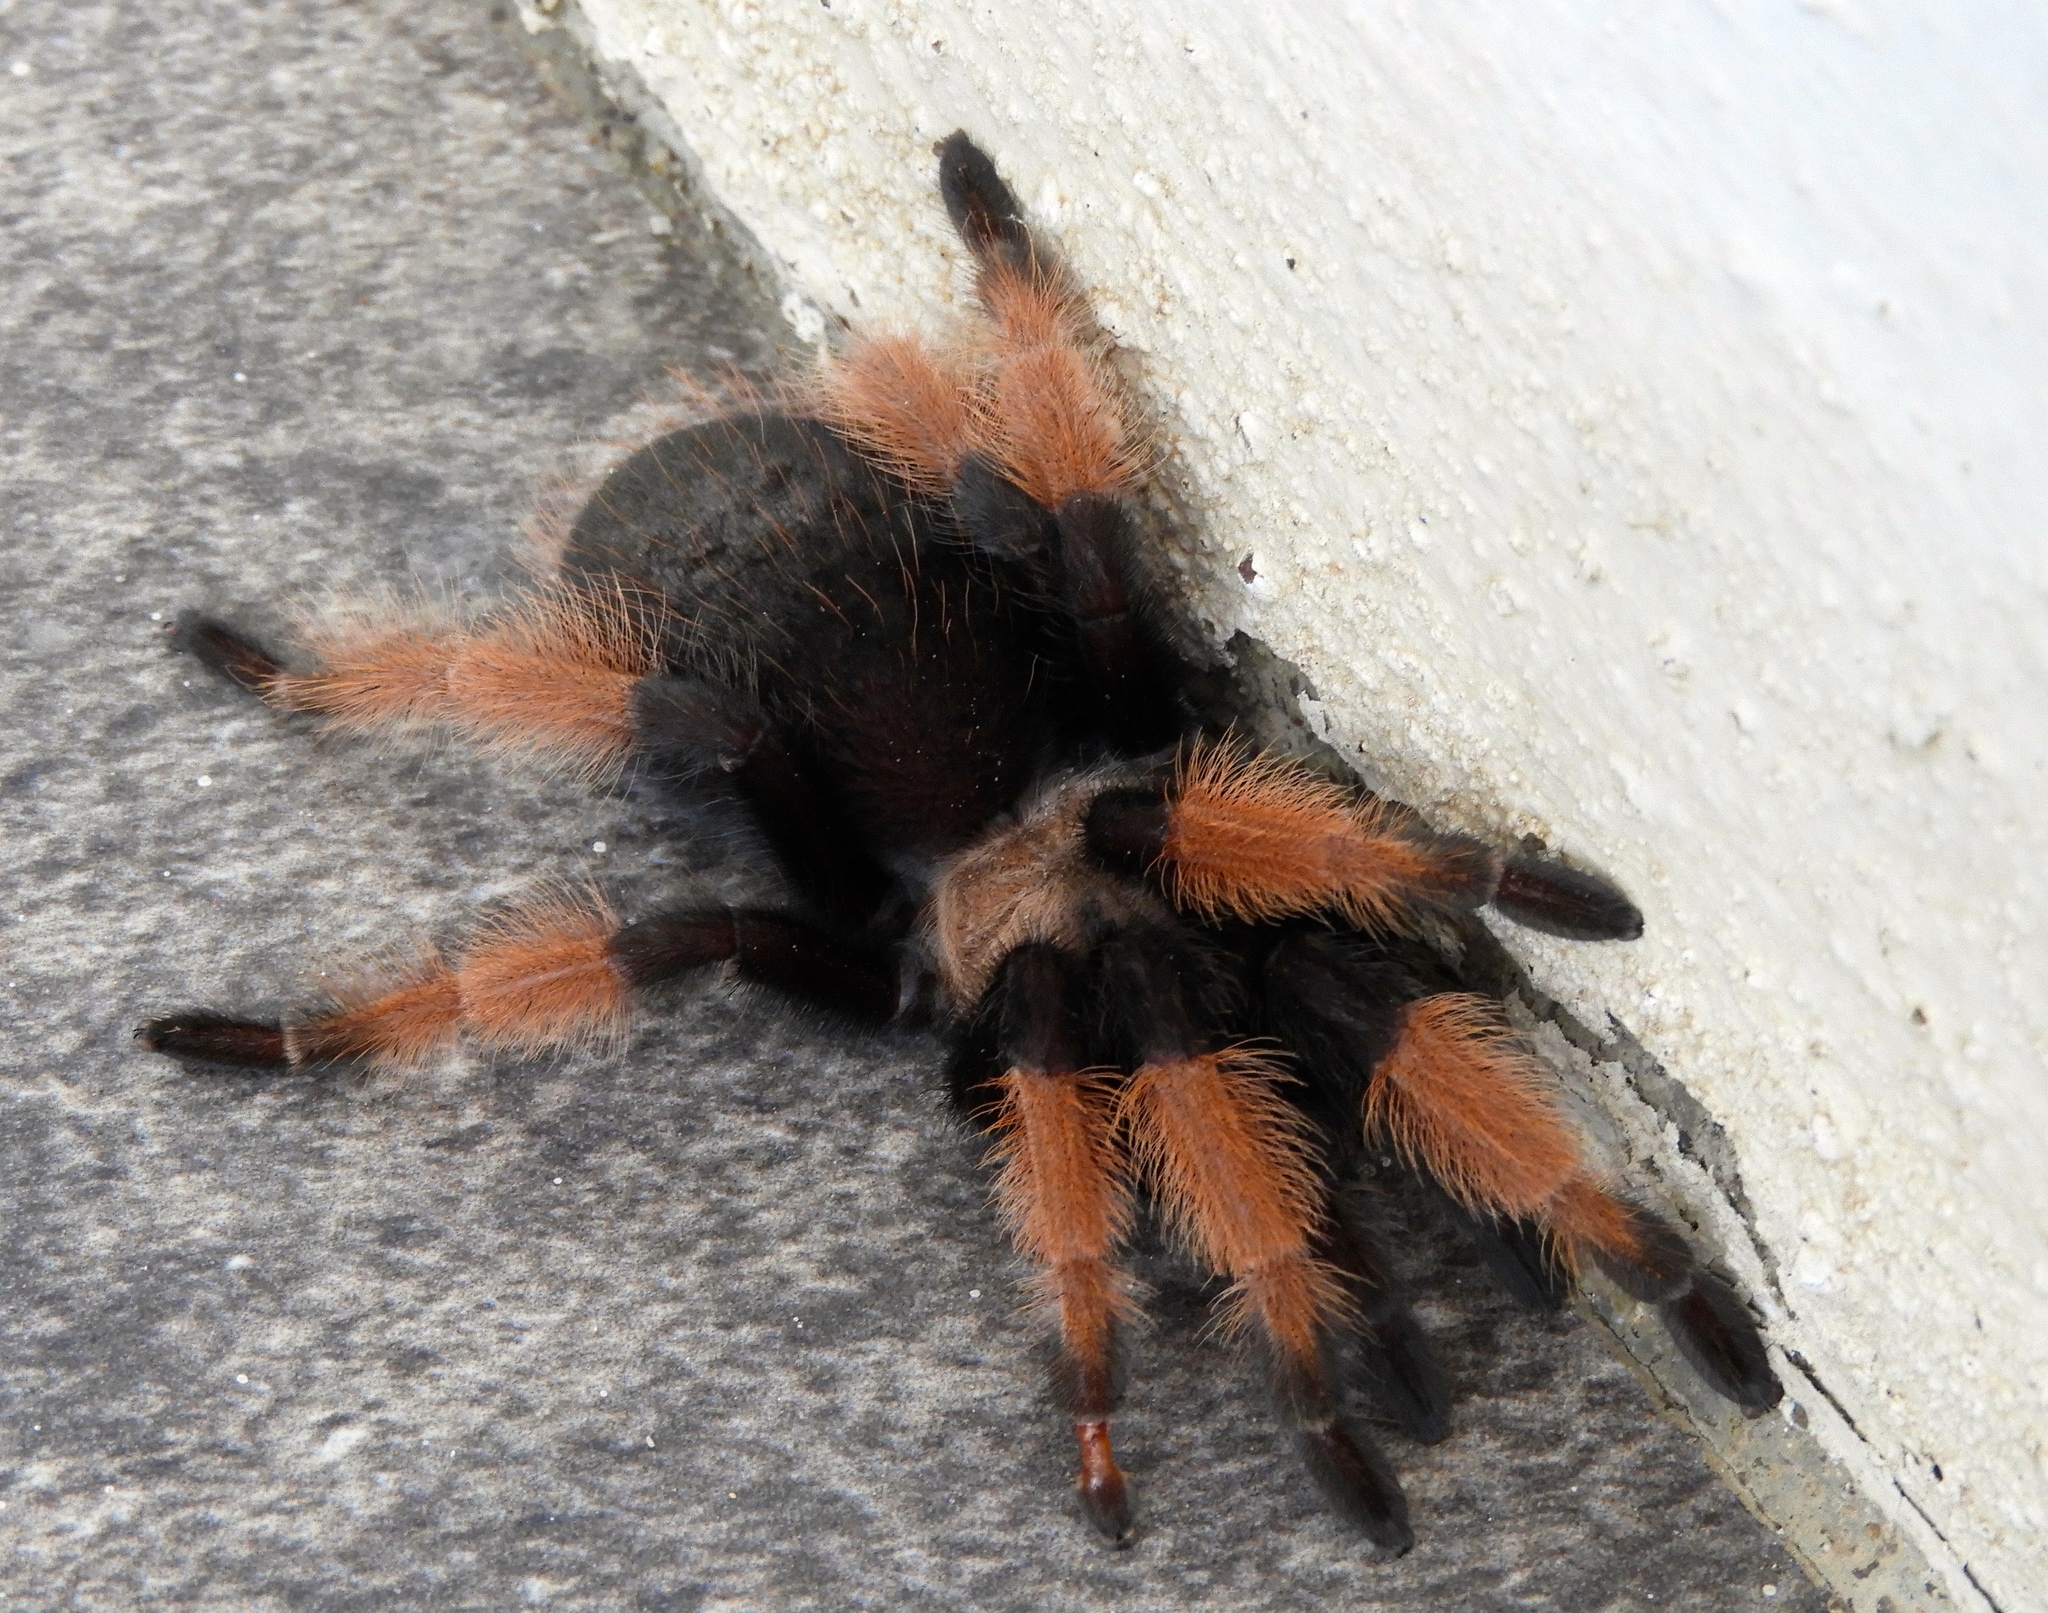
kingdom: Animalia
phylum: Arthropoda
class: Arachnida
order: Araneae
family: Theraphosidae
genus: Brachypelma
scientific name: Brachypelma emilia
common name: Mexican redleg
